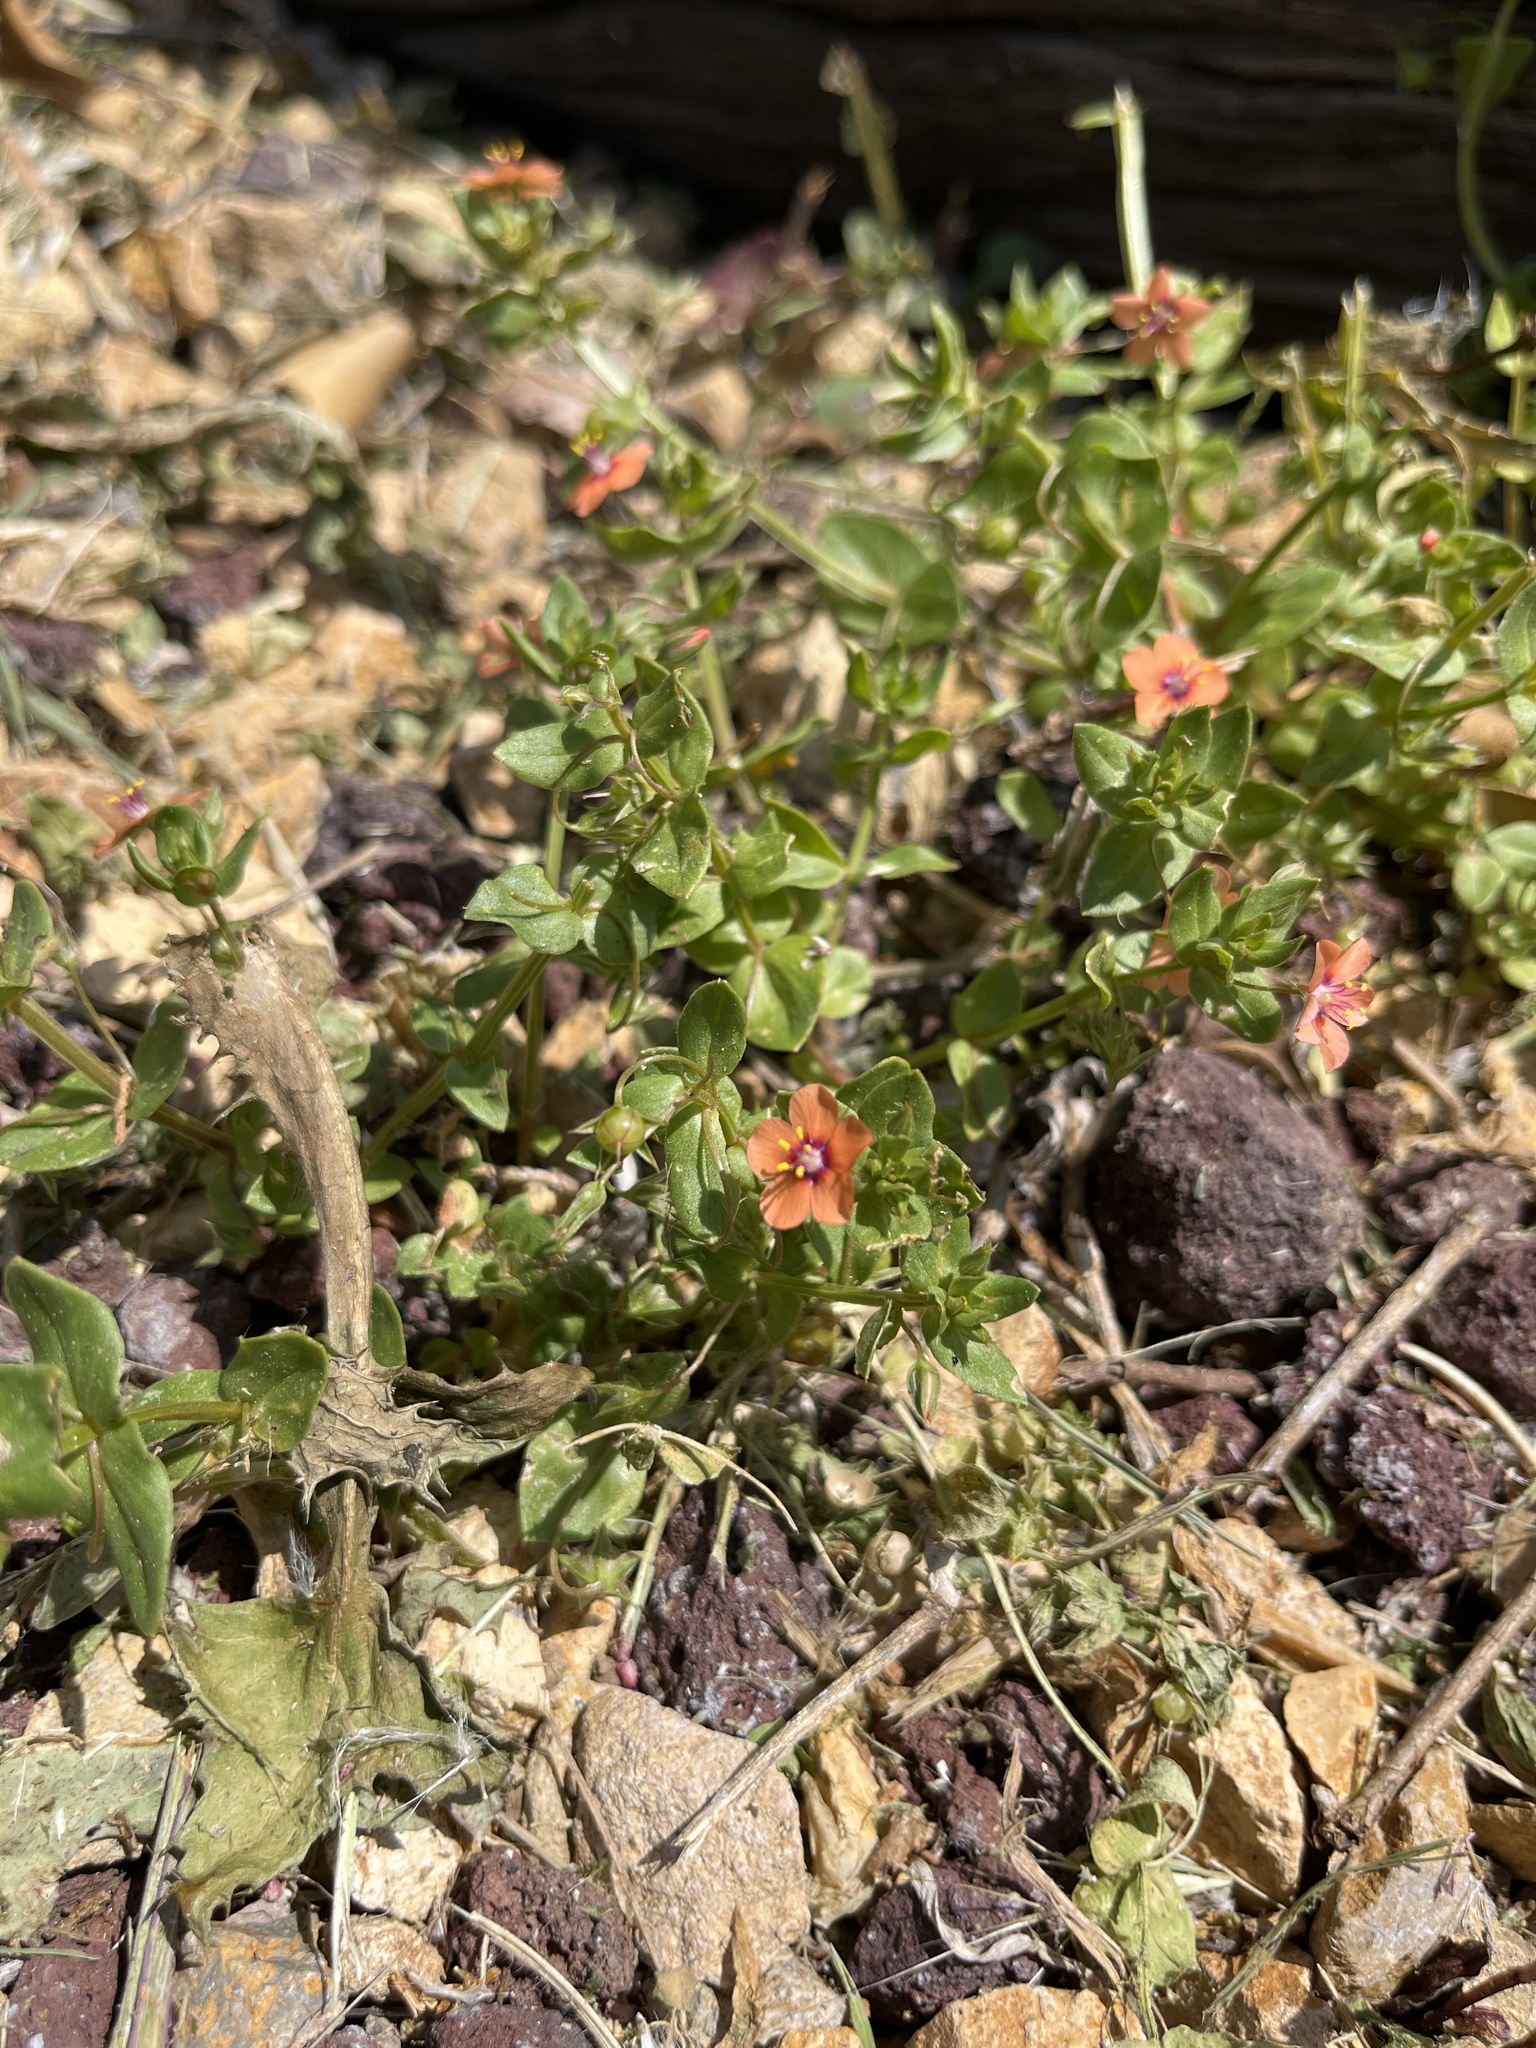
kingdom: Plantae
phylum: Tracheophyta
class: Magnoliopsida
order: Ericales
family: Primulaceae
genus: Lysimachia
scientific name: Lysimachia arvensis
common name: Scarlet pimpernel
